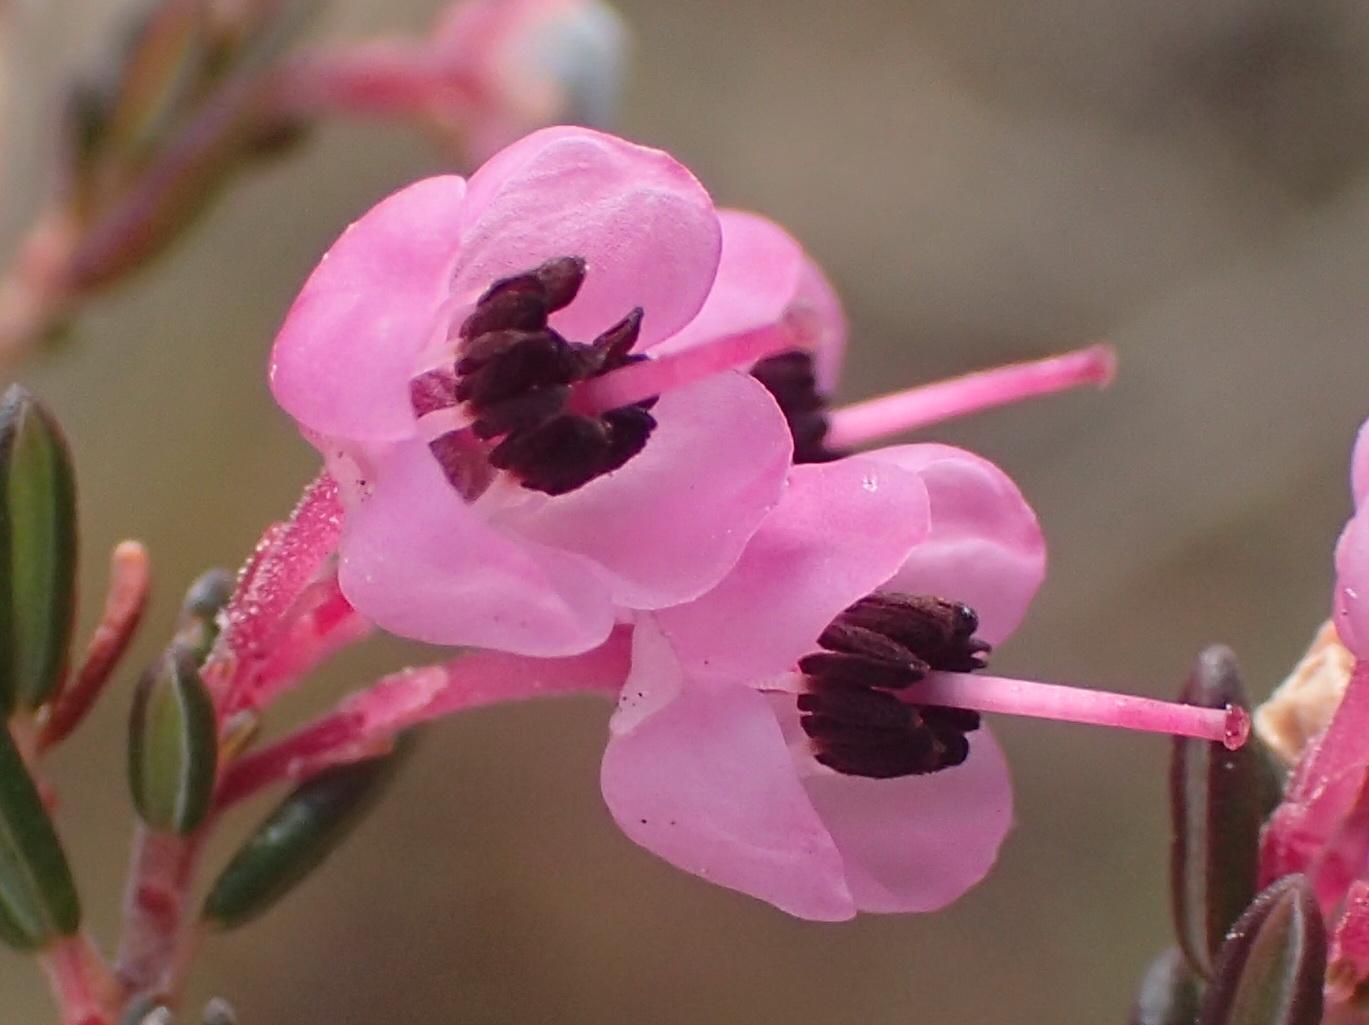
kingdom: Plantae
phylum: Tracheophyta
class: Magnoliopsida
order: Ericales
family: Ericaceae
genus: Erica
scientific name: Erica sparsa
